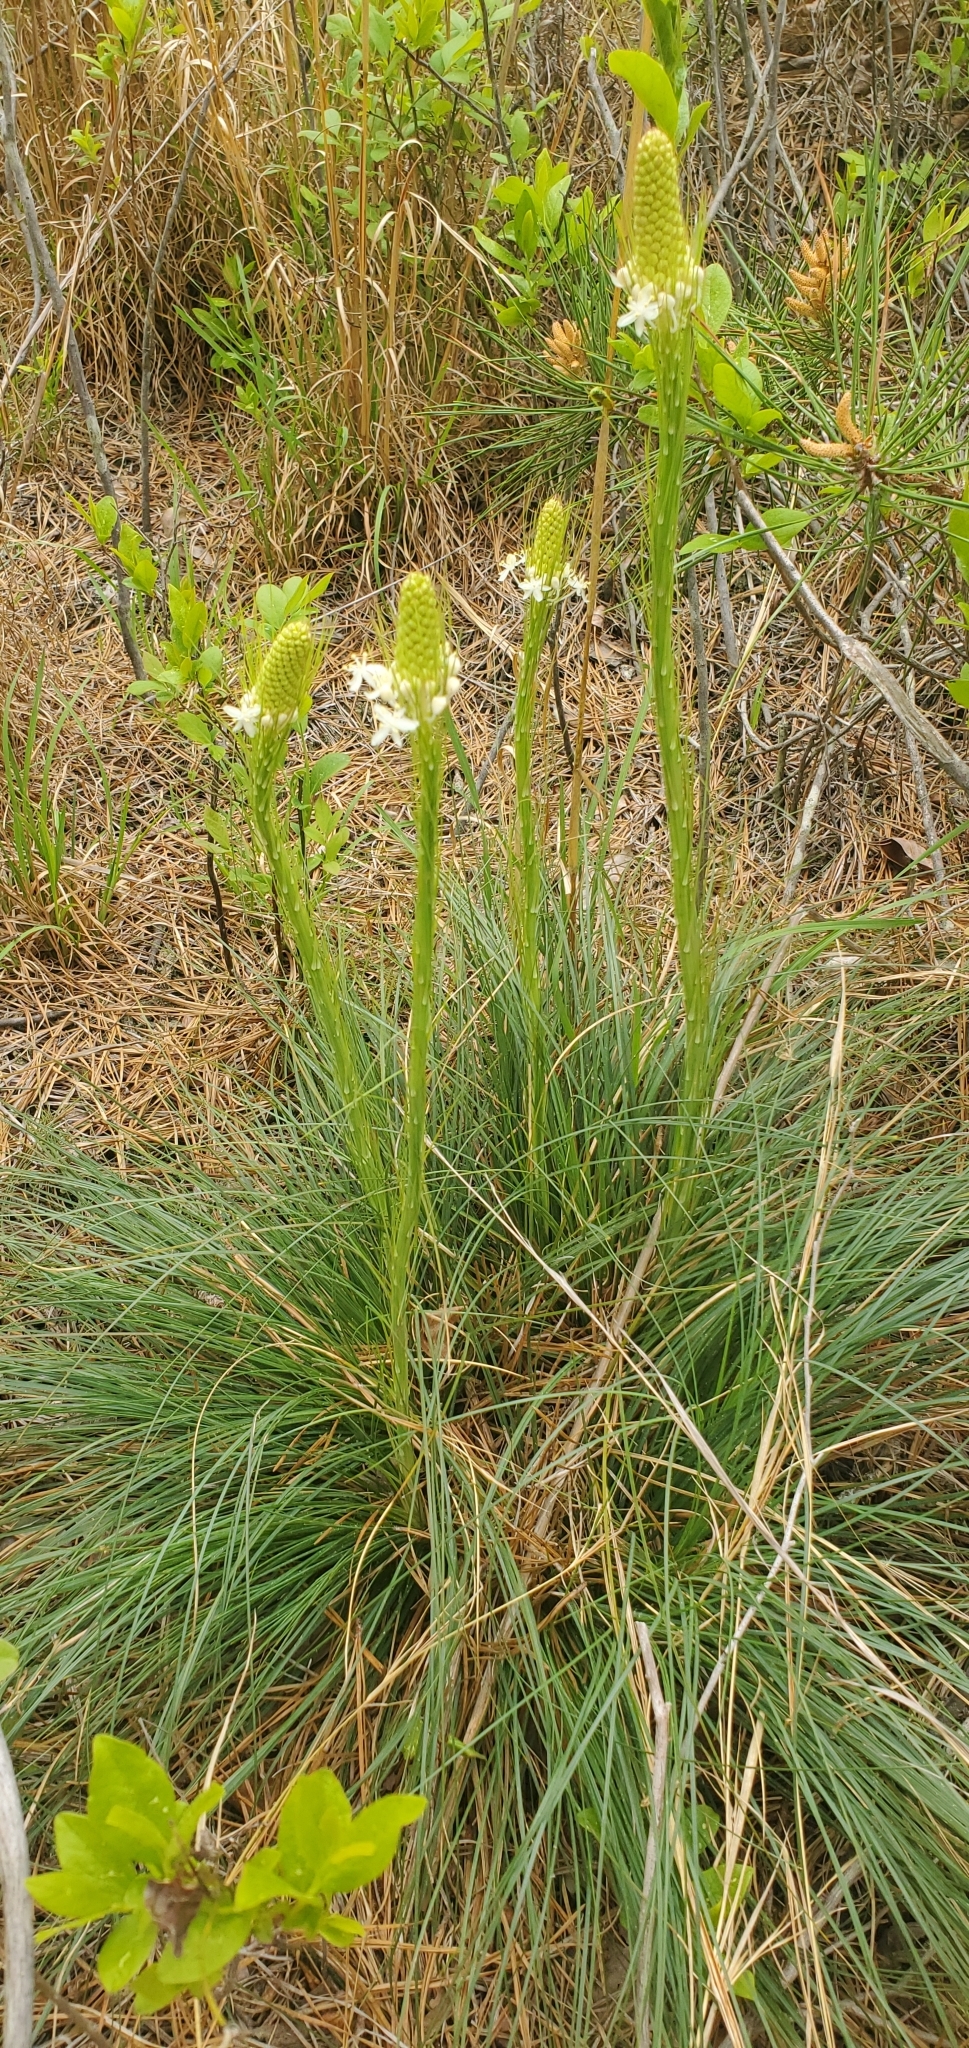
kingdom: Plantae
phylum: Tracheophyta
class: Liliopsida
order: Liliales
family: Melanthiaceae
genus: Xerophyllum
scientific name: Xerophyllum asphodeloides
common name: Mountain-asphodel
